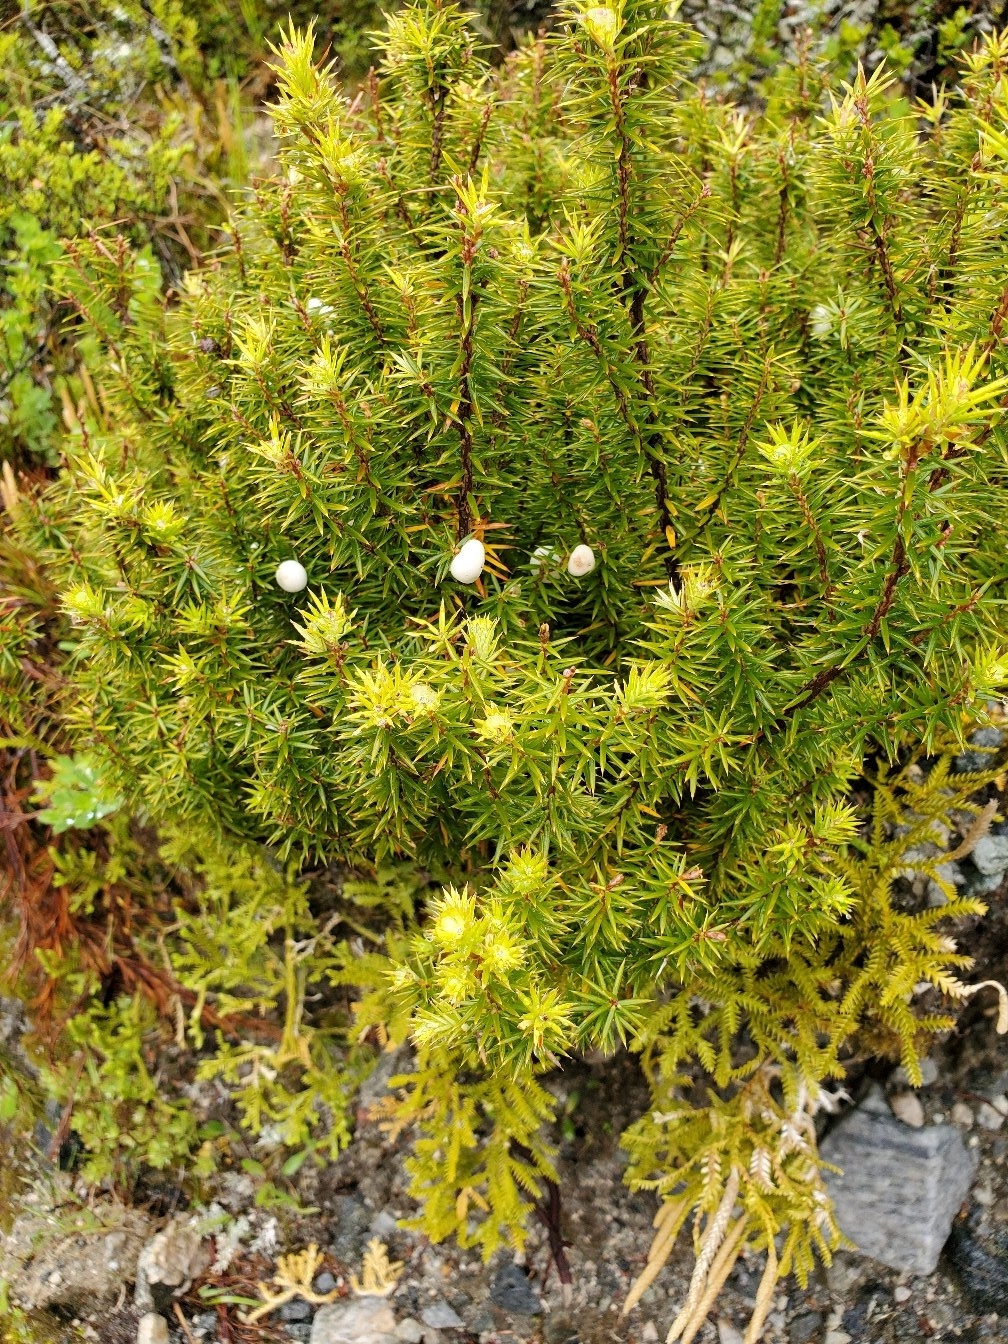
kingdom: Plantae
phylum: Tracheophyta
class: Magnoliopsida
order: Ericales
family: Ericaceae
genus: Leptecophylla
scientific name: Leptecophylla juniperina
